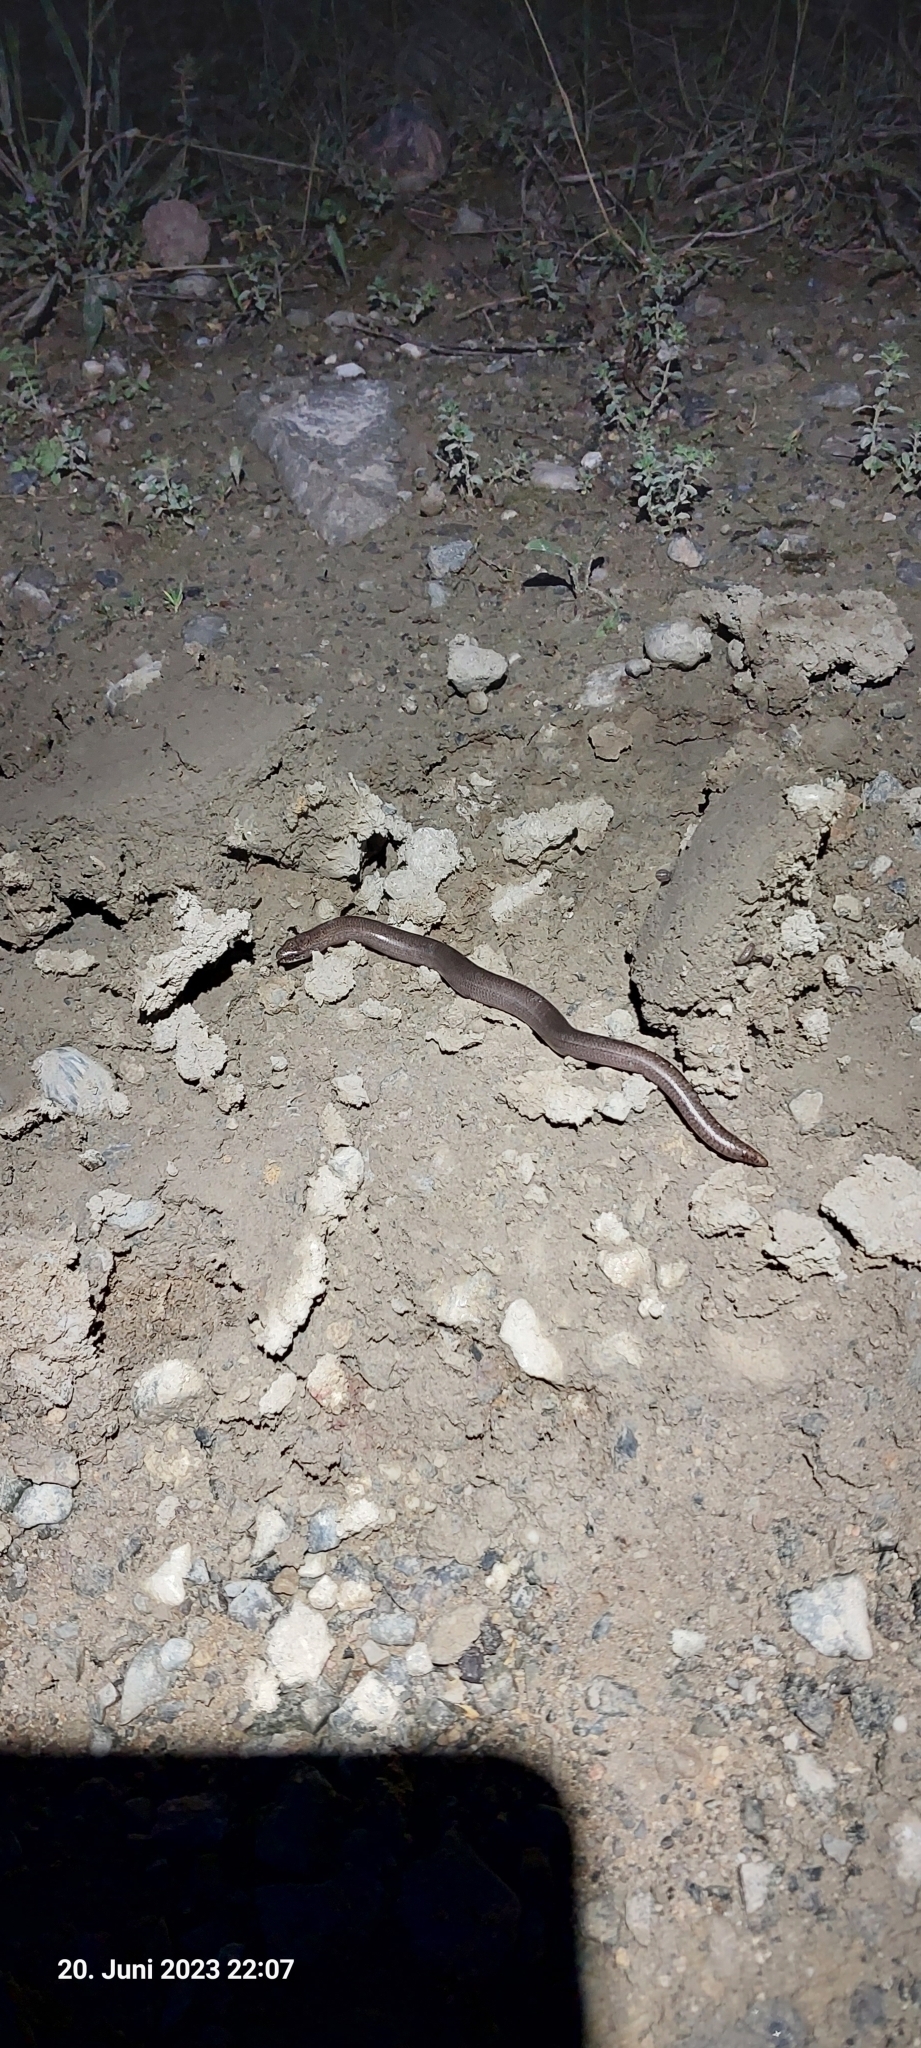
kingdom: Animalia
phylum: Chordata
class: Squamata
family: Anguidae
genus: Anguis
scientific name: Anguis fragilis
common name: Slow worm
